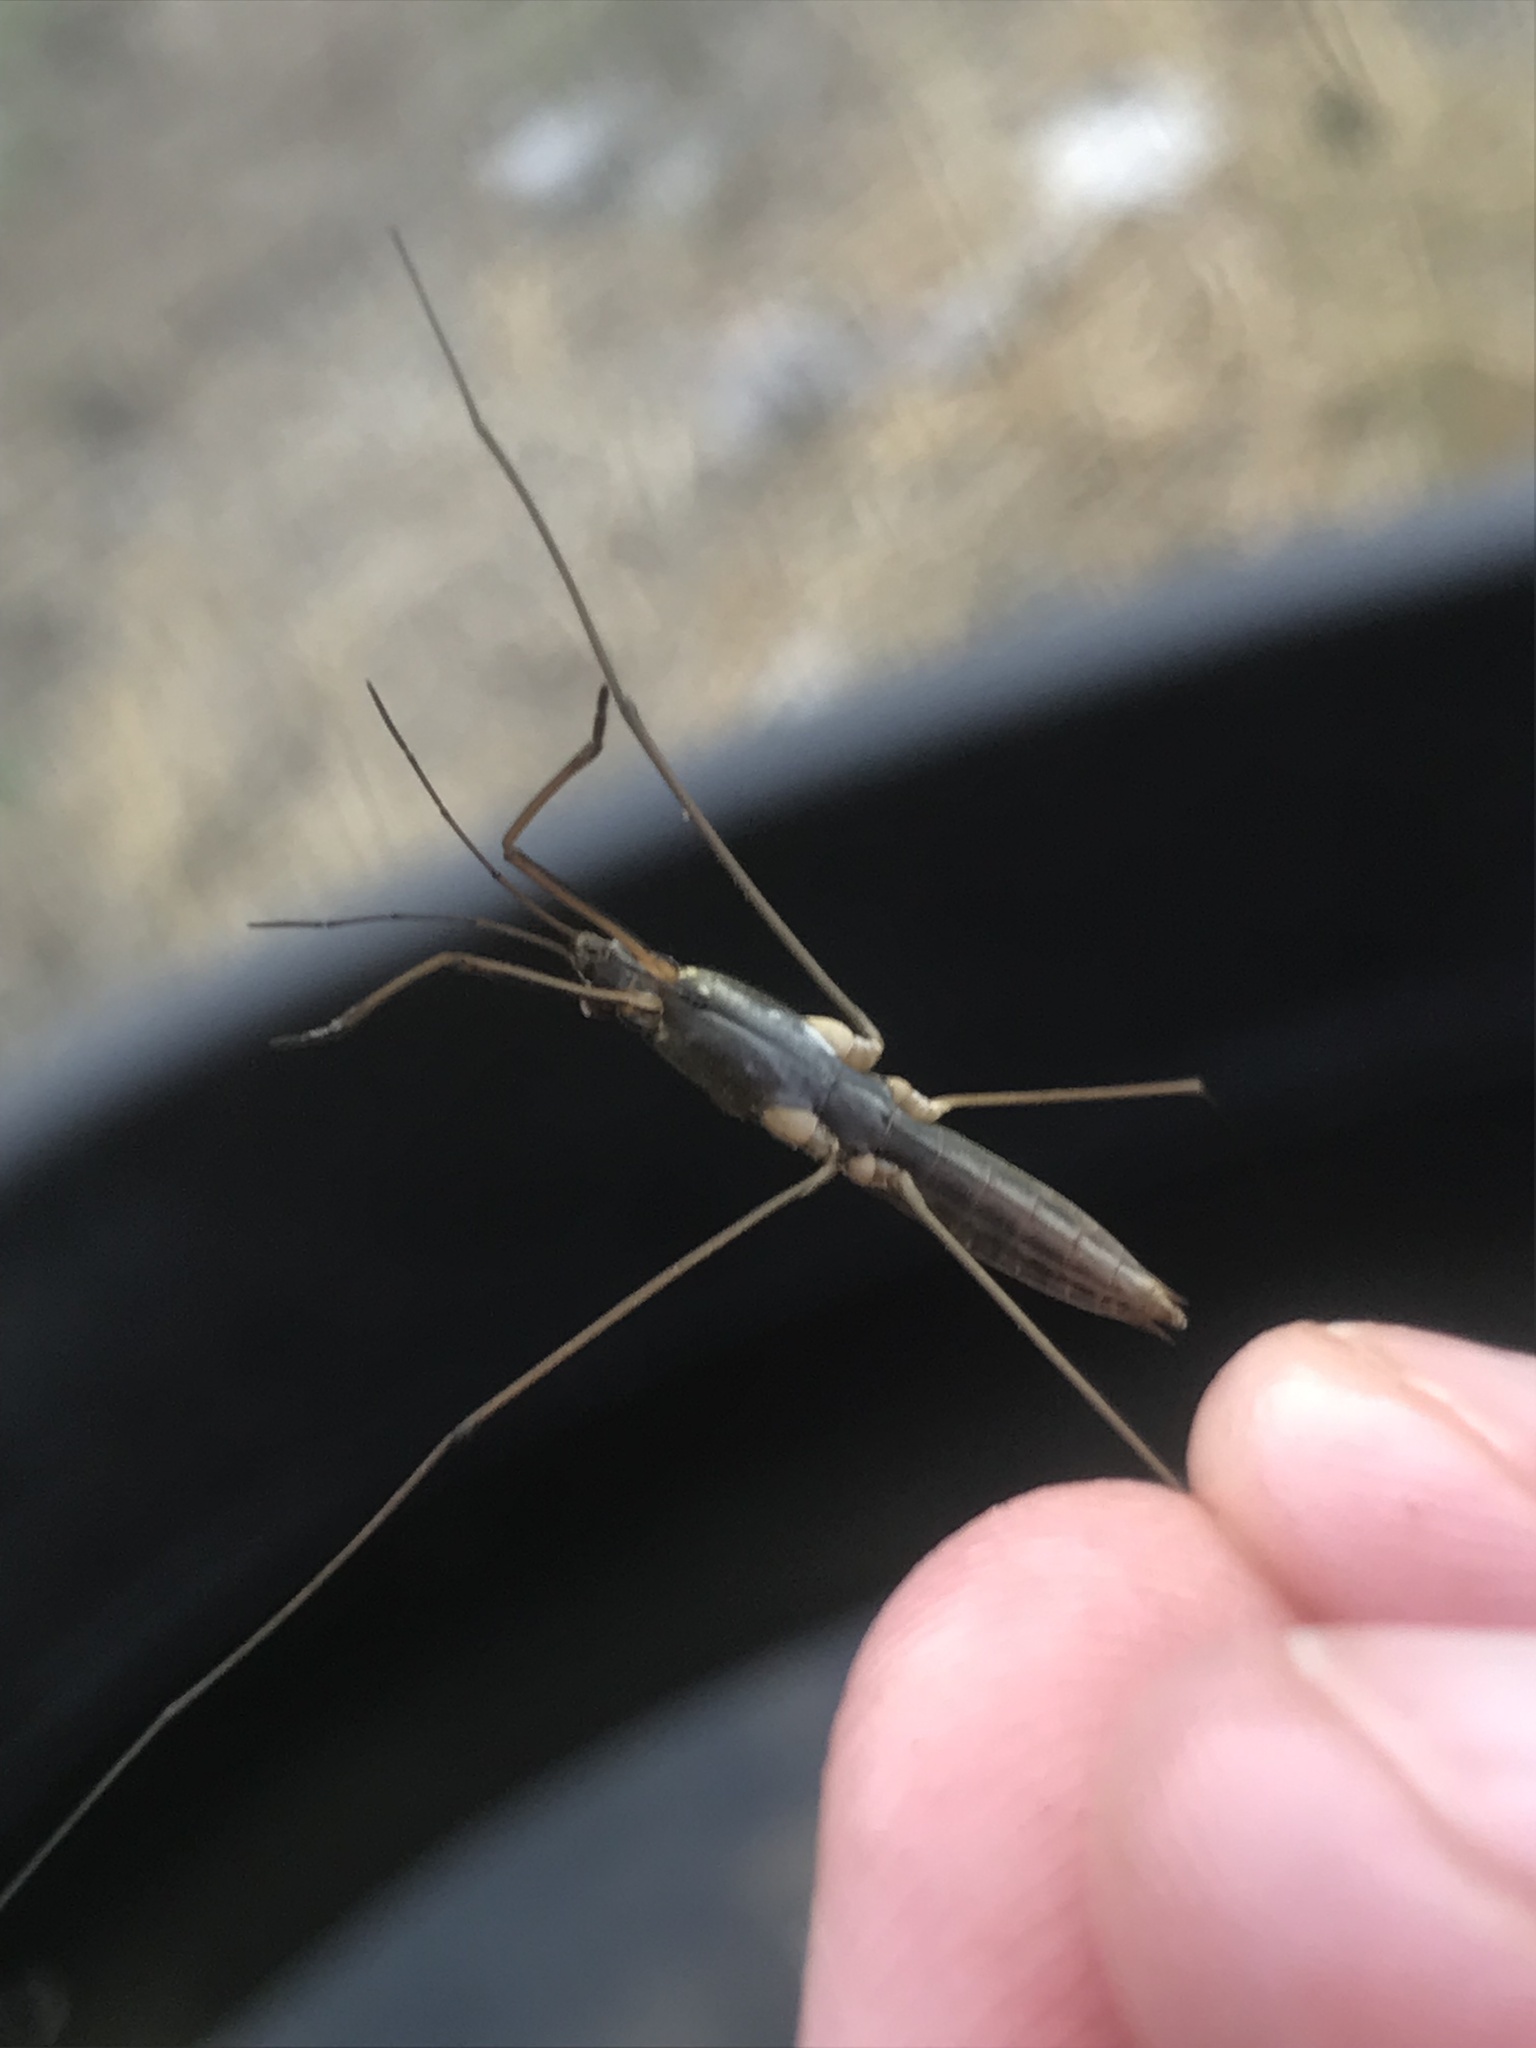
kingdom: Animalia
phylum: Arthropoda
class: Insecta
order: Hemiptera
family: Gerridae
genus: Limnoporus
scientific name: Limnoporus notabilis
